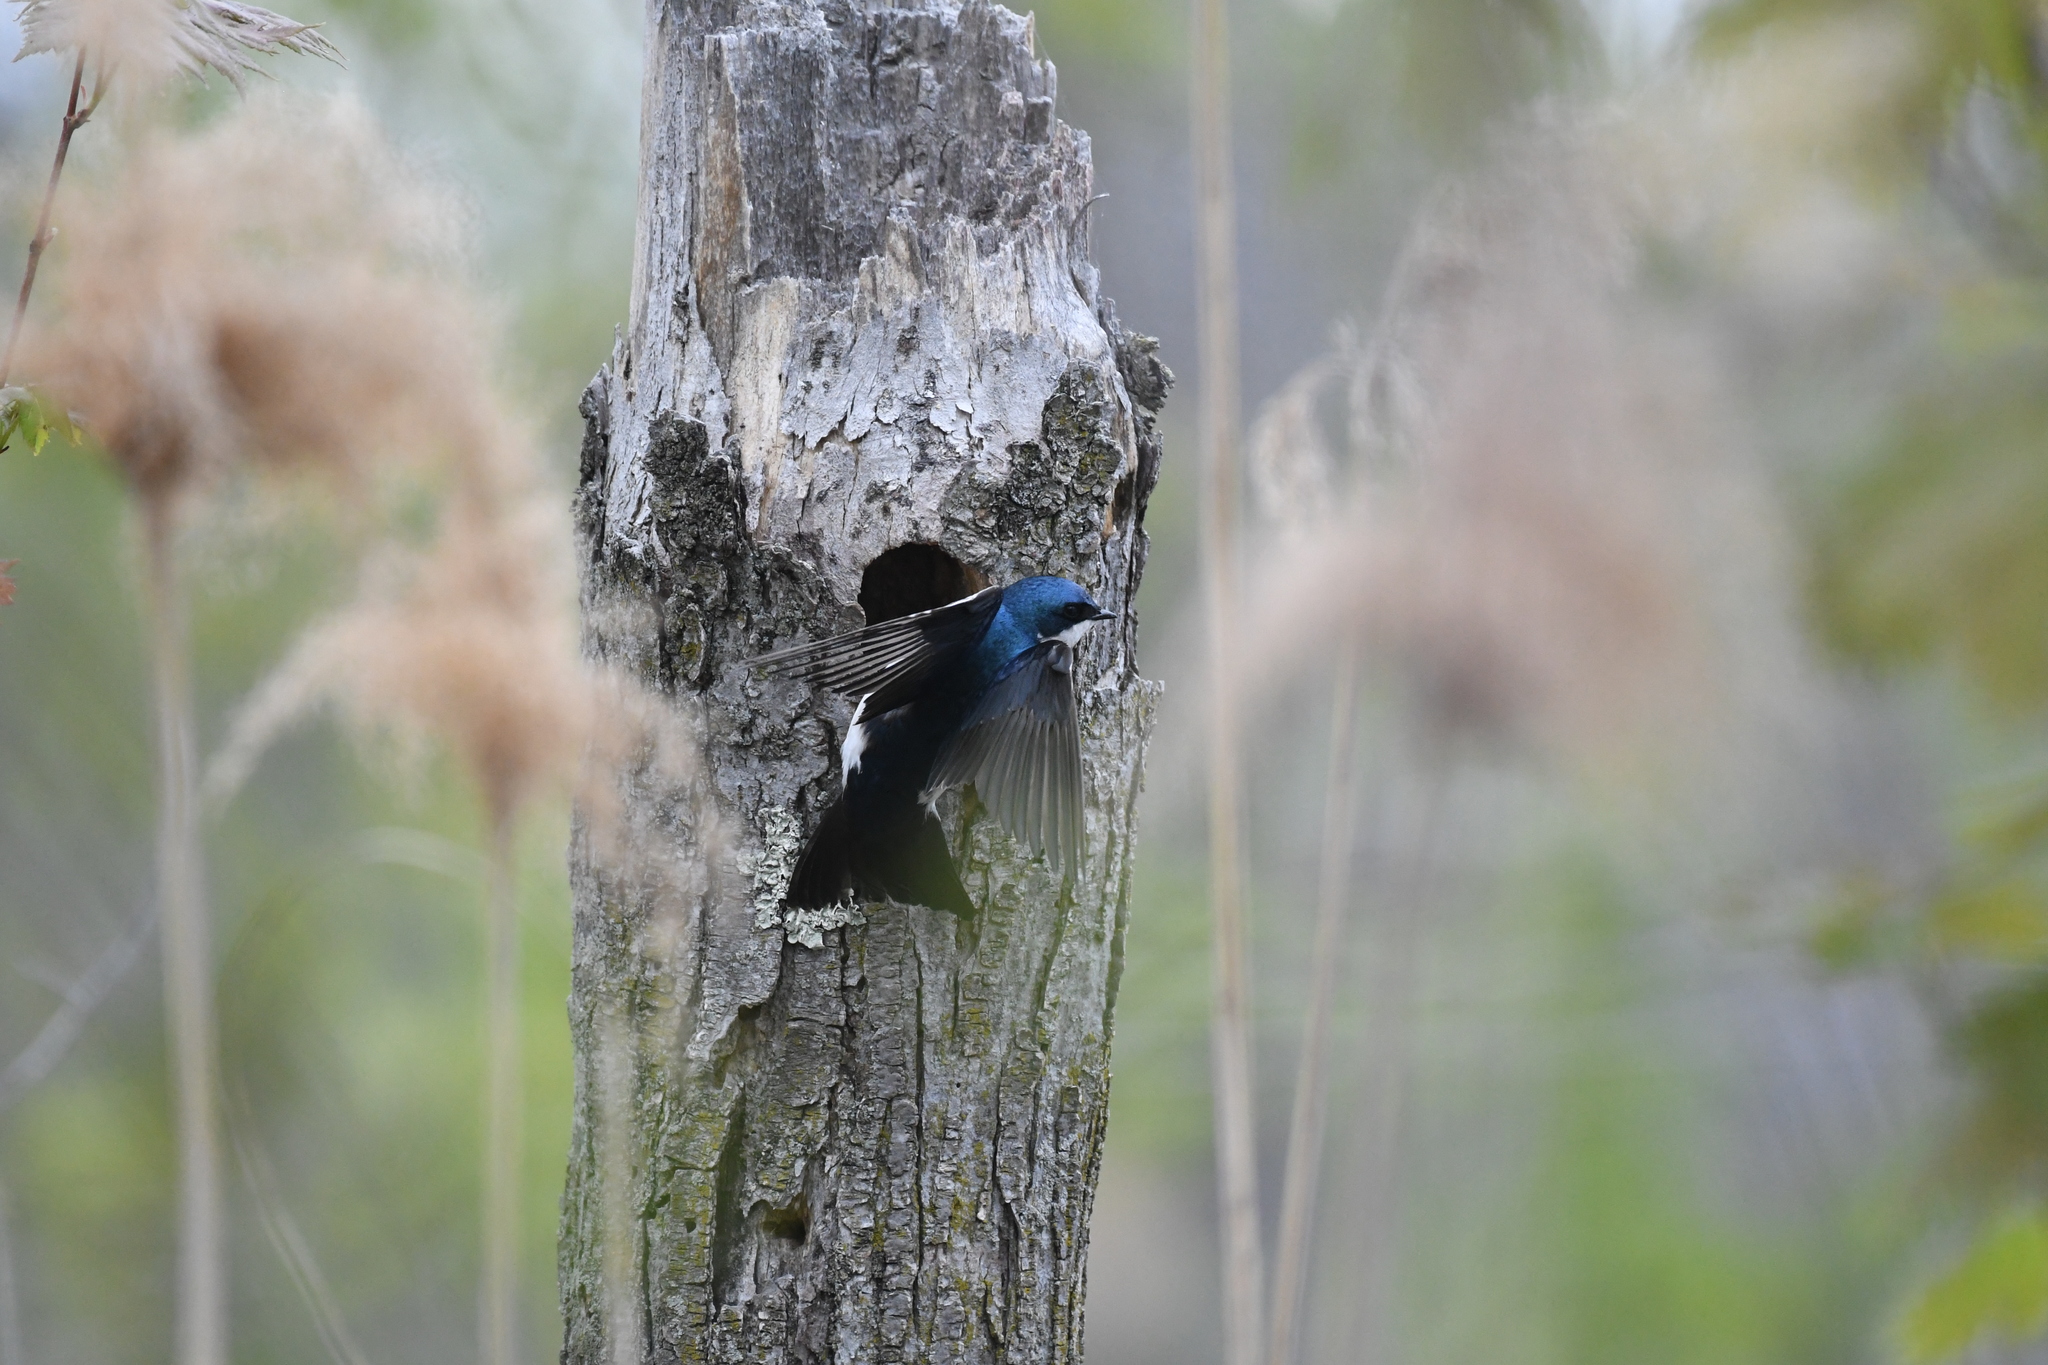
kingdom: Animalia
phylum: Chordata
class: Aves
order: Passeriformes
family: Hirundinidae
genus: Tachycineta
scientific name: Tachycineta bicolor
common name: Tree swallow
